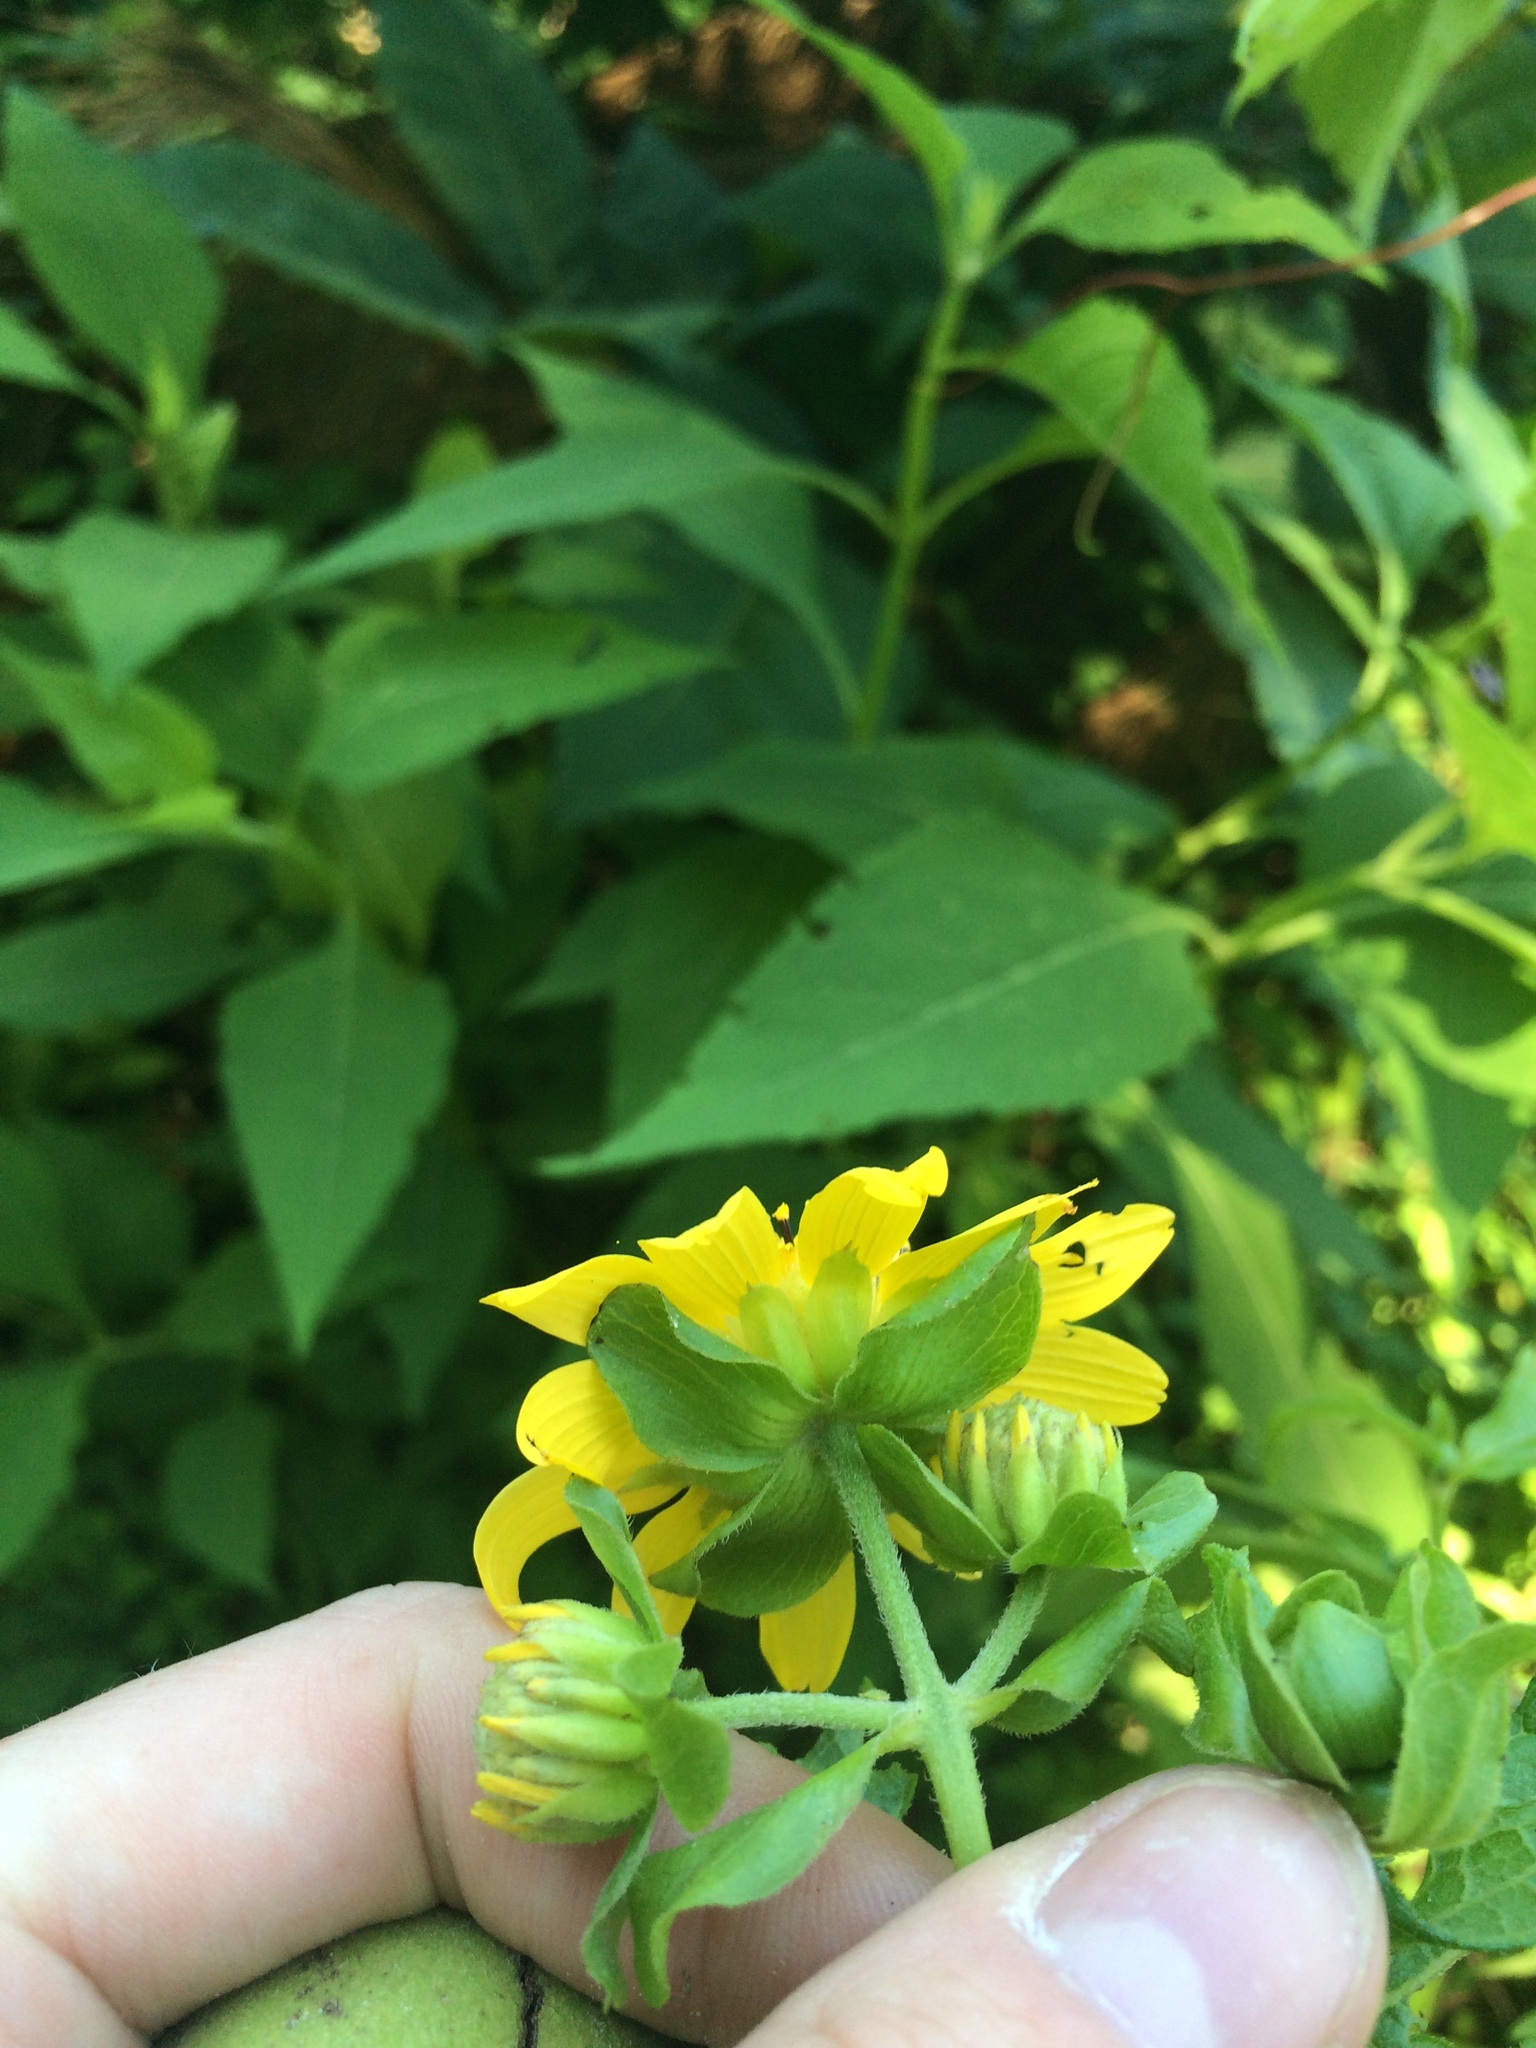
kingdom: Plantae
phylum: Tracheophyta
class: Magnoliopsida
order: Asterales
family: Asteraceae
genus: Smallanthus
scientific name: Smallanthus uvedalia
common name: Bear's-foot
